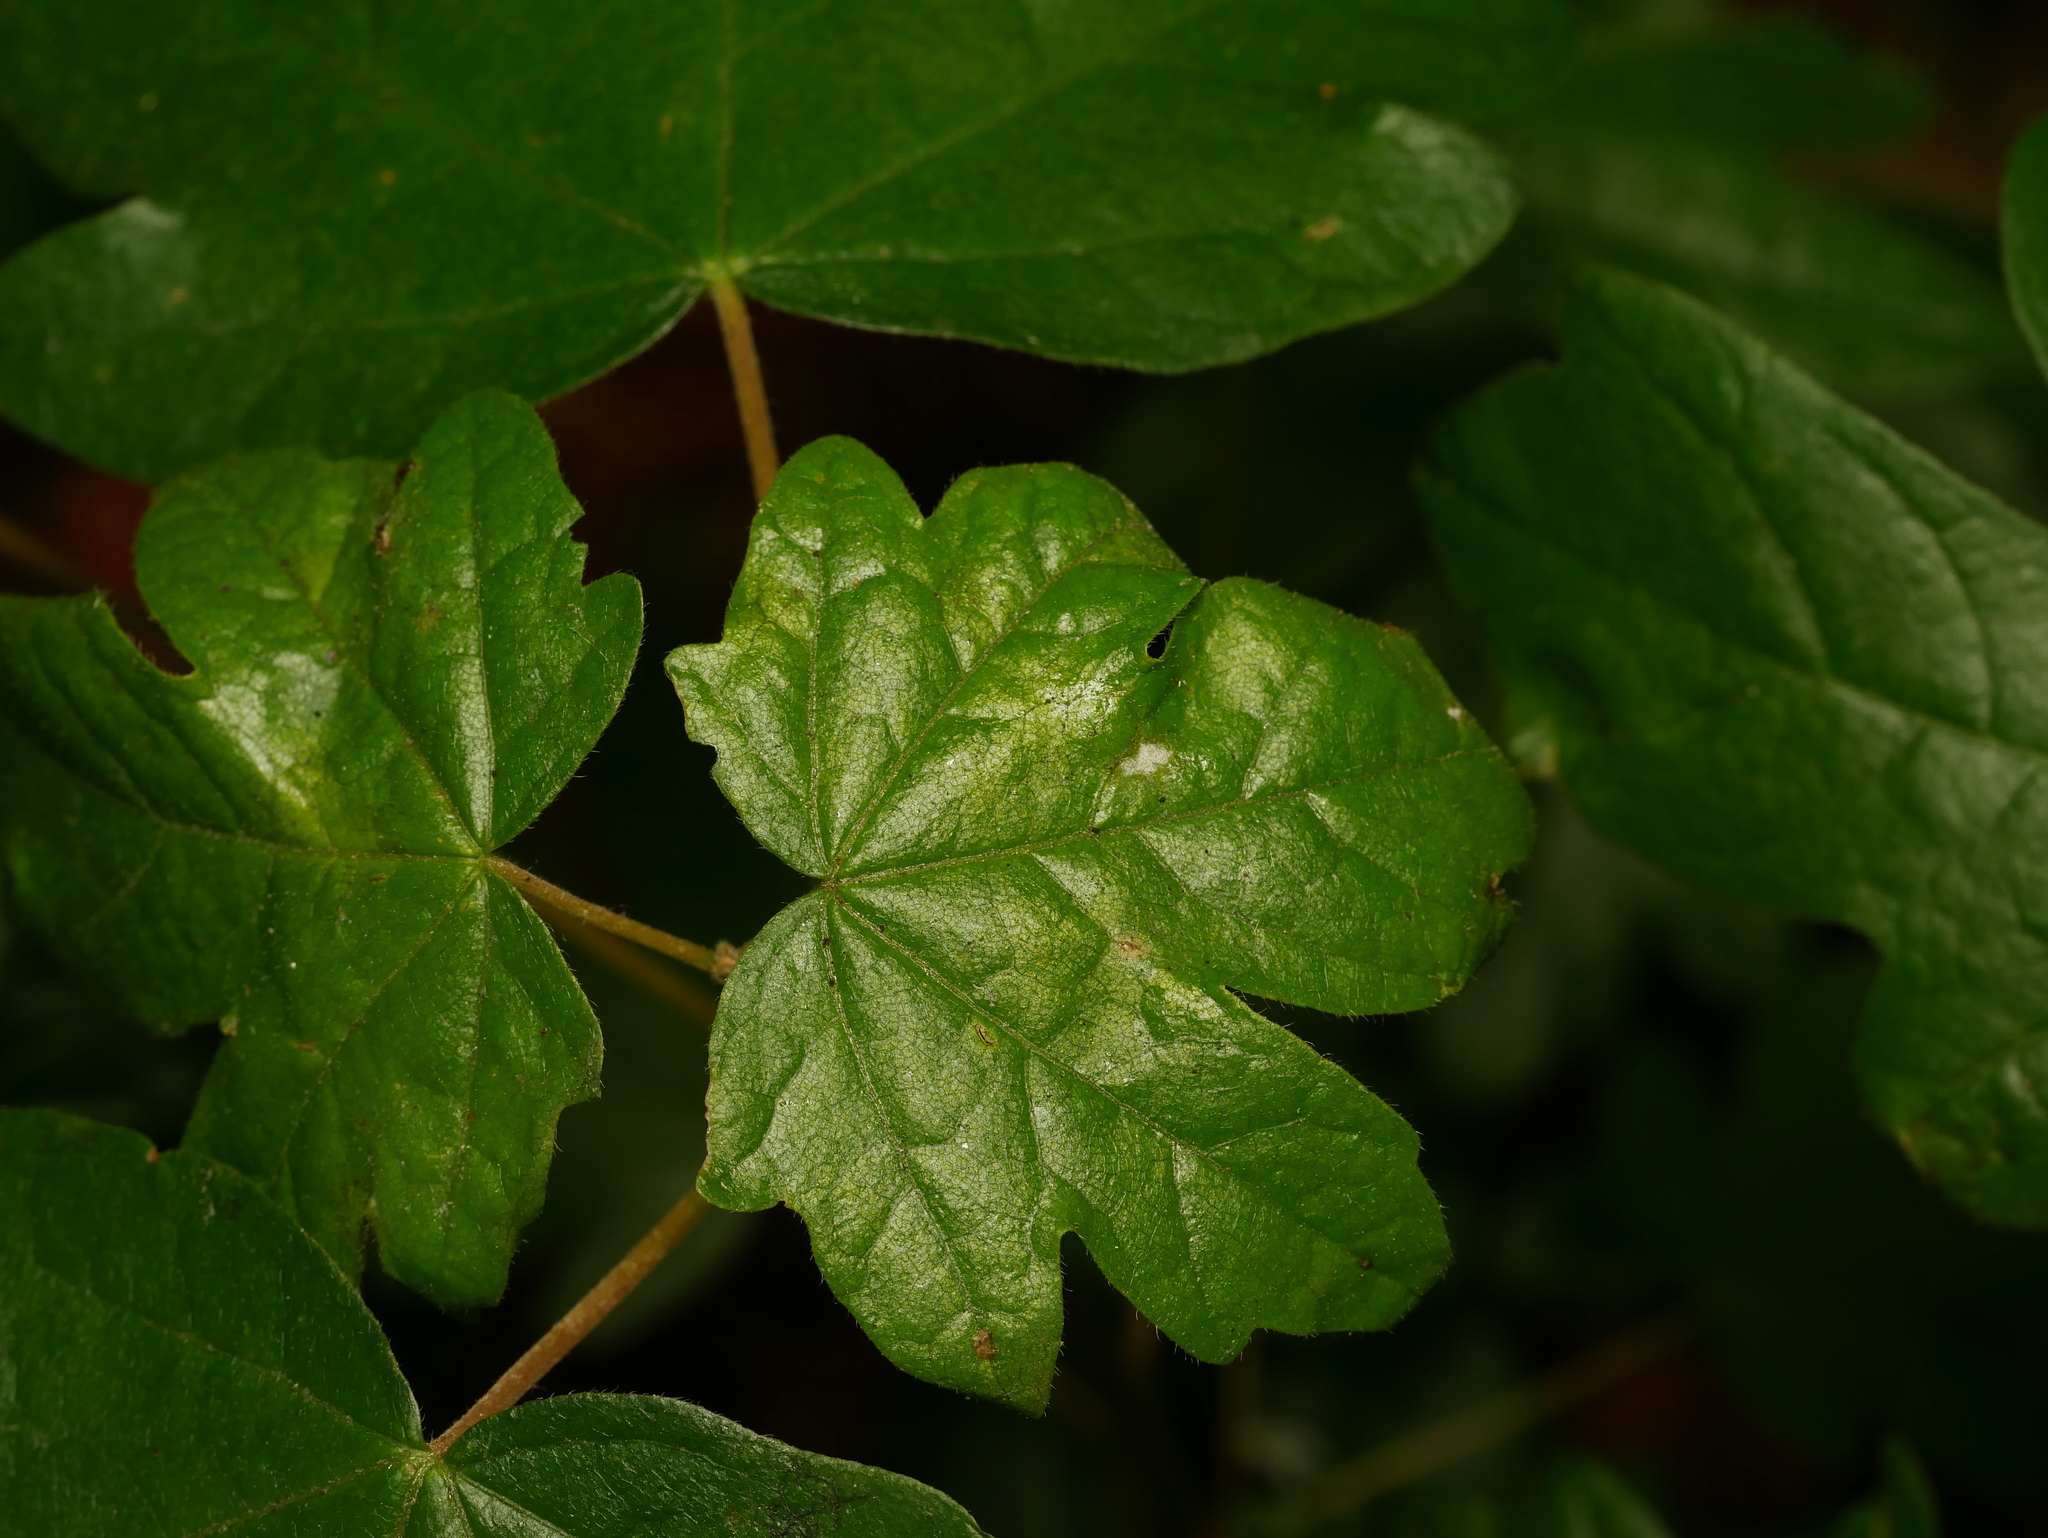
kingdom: Plantae
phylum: Tracheophyta
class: Magnoliopsida
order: Sapindales
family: Sapindaceae
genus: Acer
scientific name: Acer campestre
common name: Field maple
